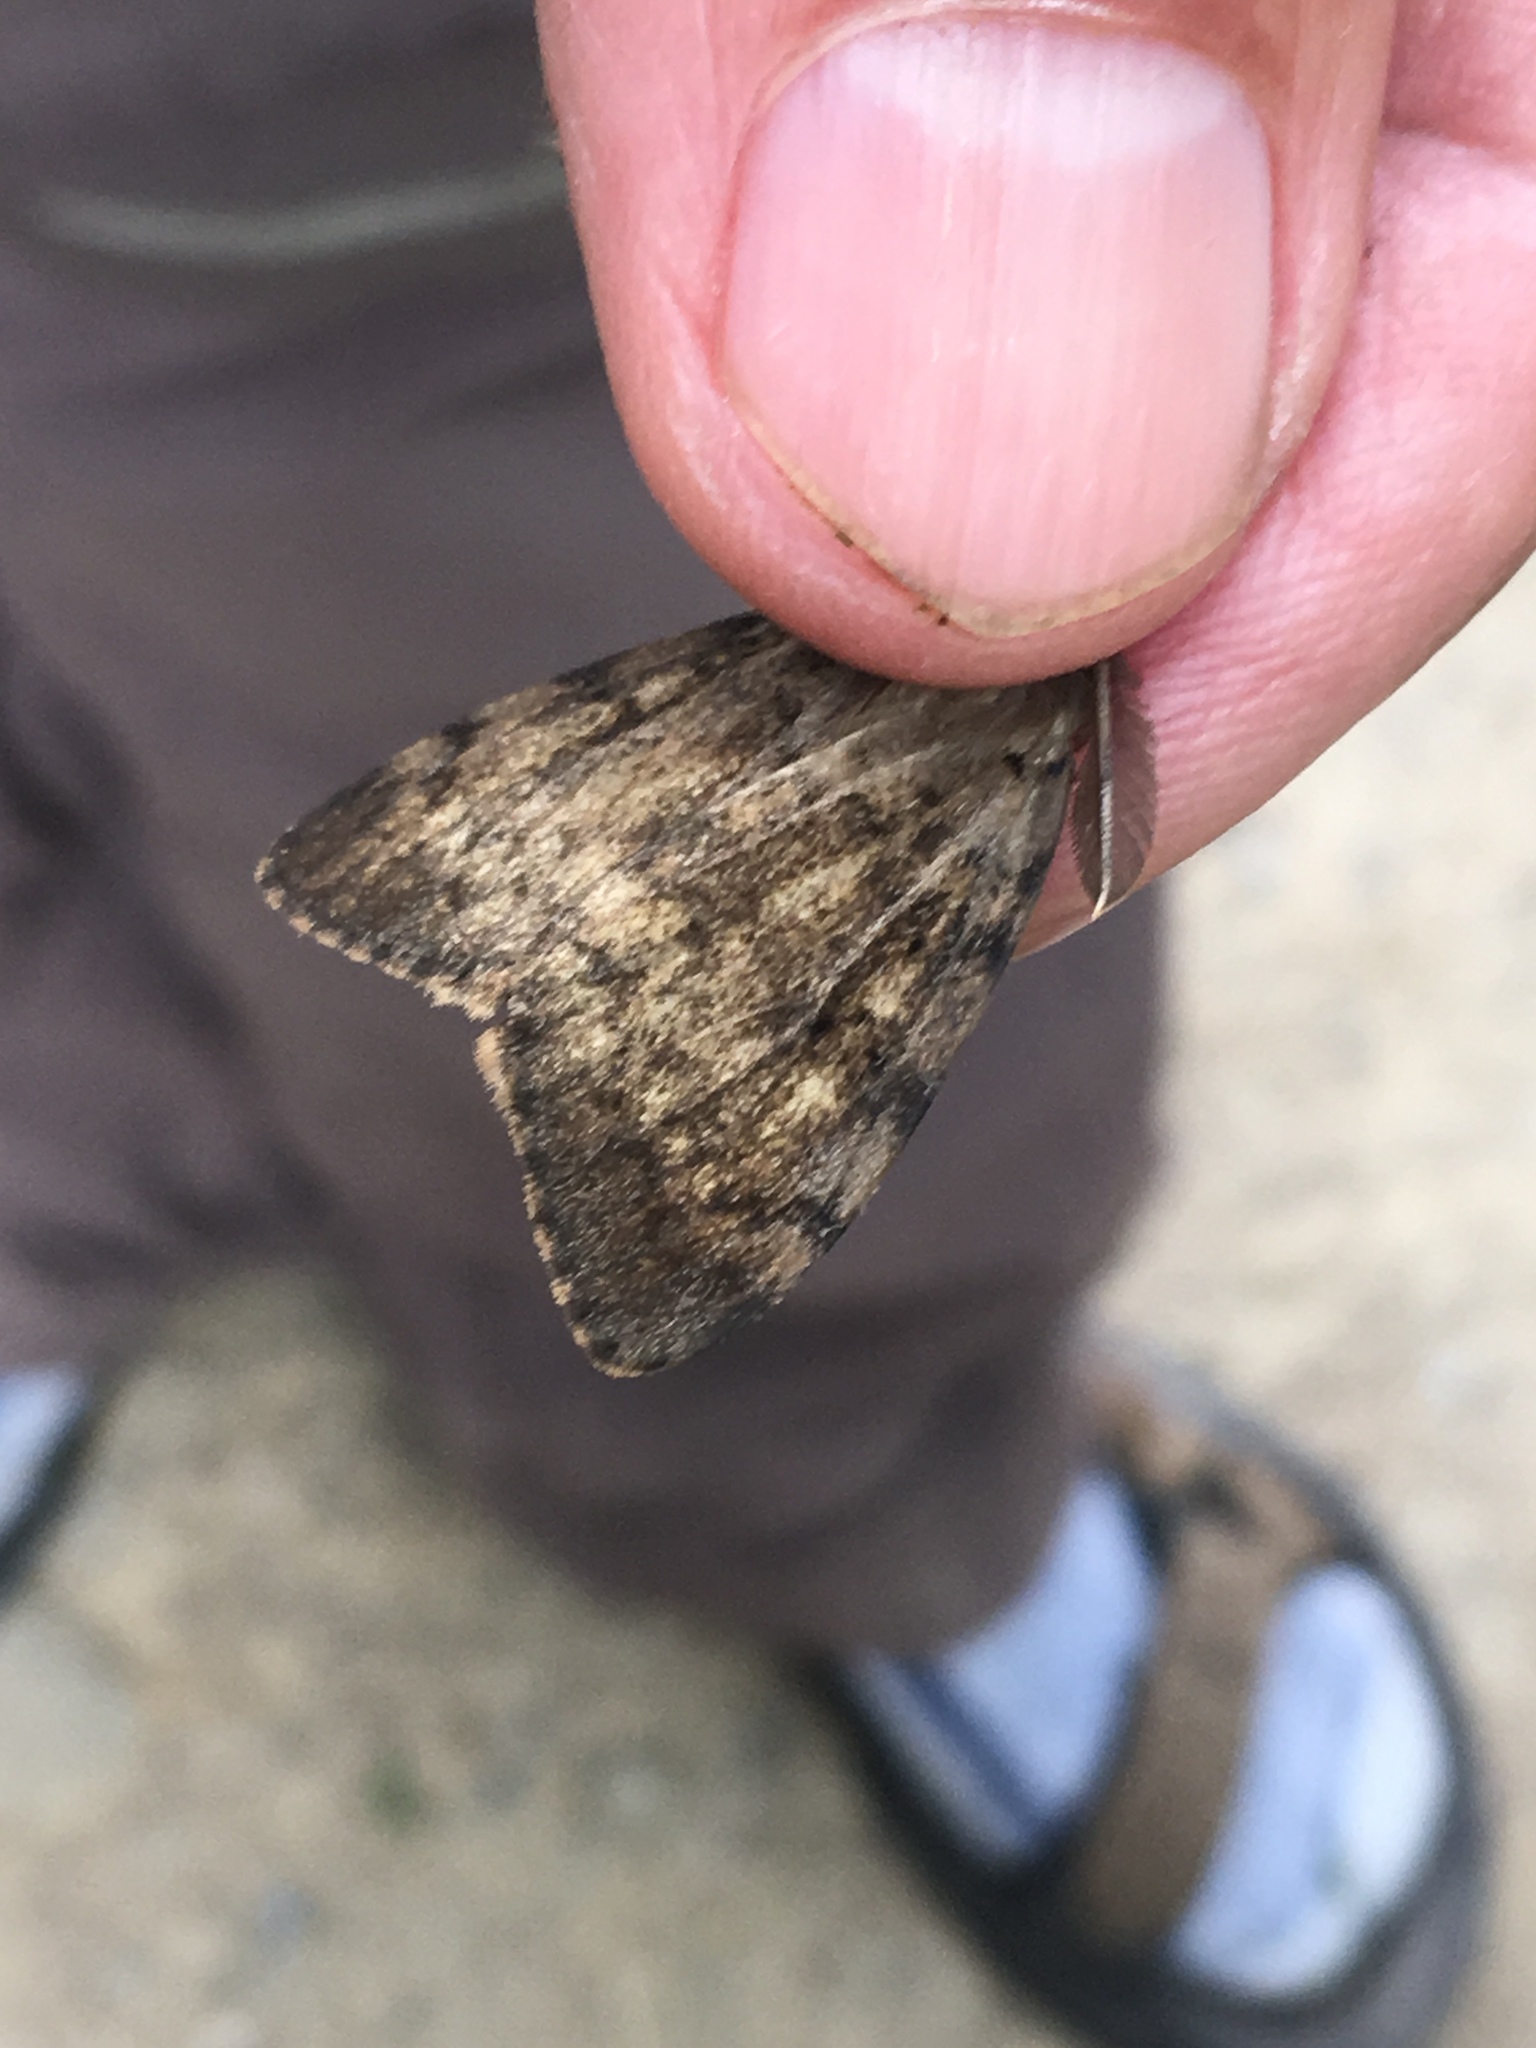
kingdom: Animalia
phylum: Arthropoda
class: Insecta
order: Lepidoptera
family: Erebidae
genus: Lymantria
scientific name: Lymantria dispar
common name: Gypsy moth
